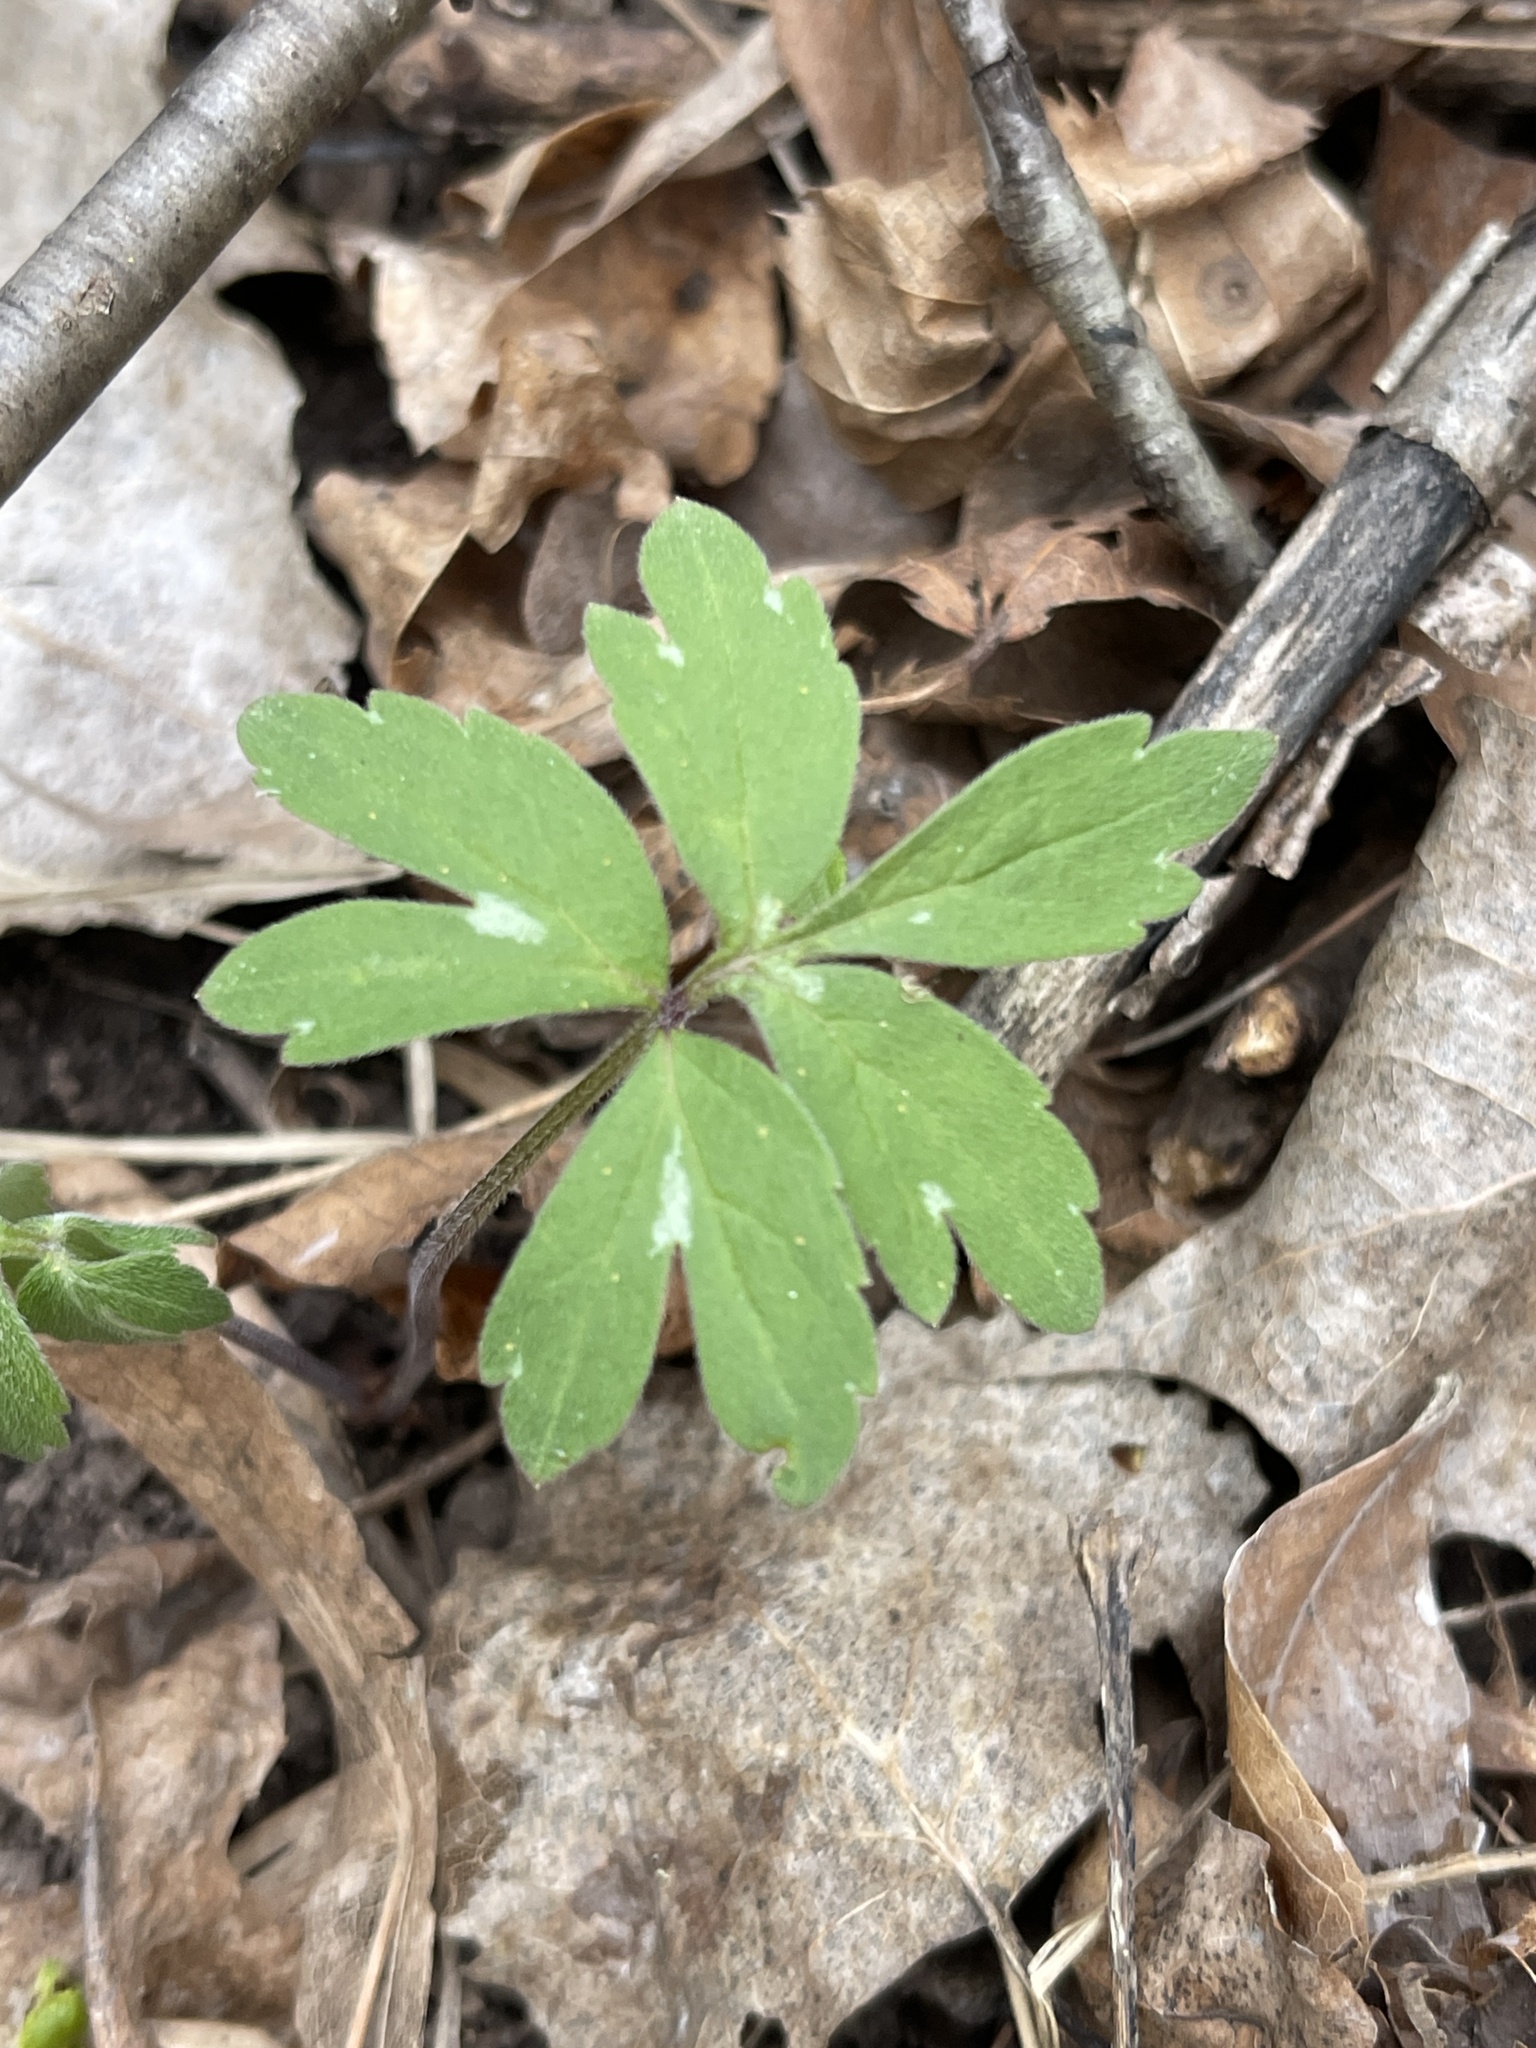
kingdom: Plantae
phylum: Tracheophyta
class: Magnoliopsida
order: Boraginales
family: Hydrophyllaceae
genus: Hydrophyllum
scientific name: Hydrophyllum virginianum
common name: Virginia waterleaf
